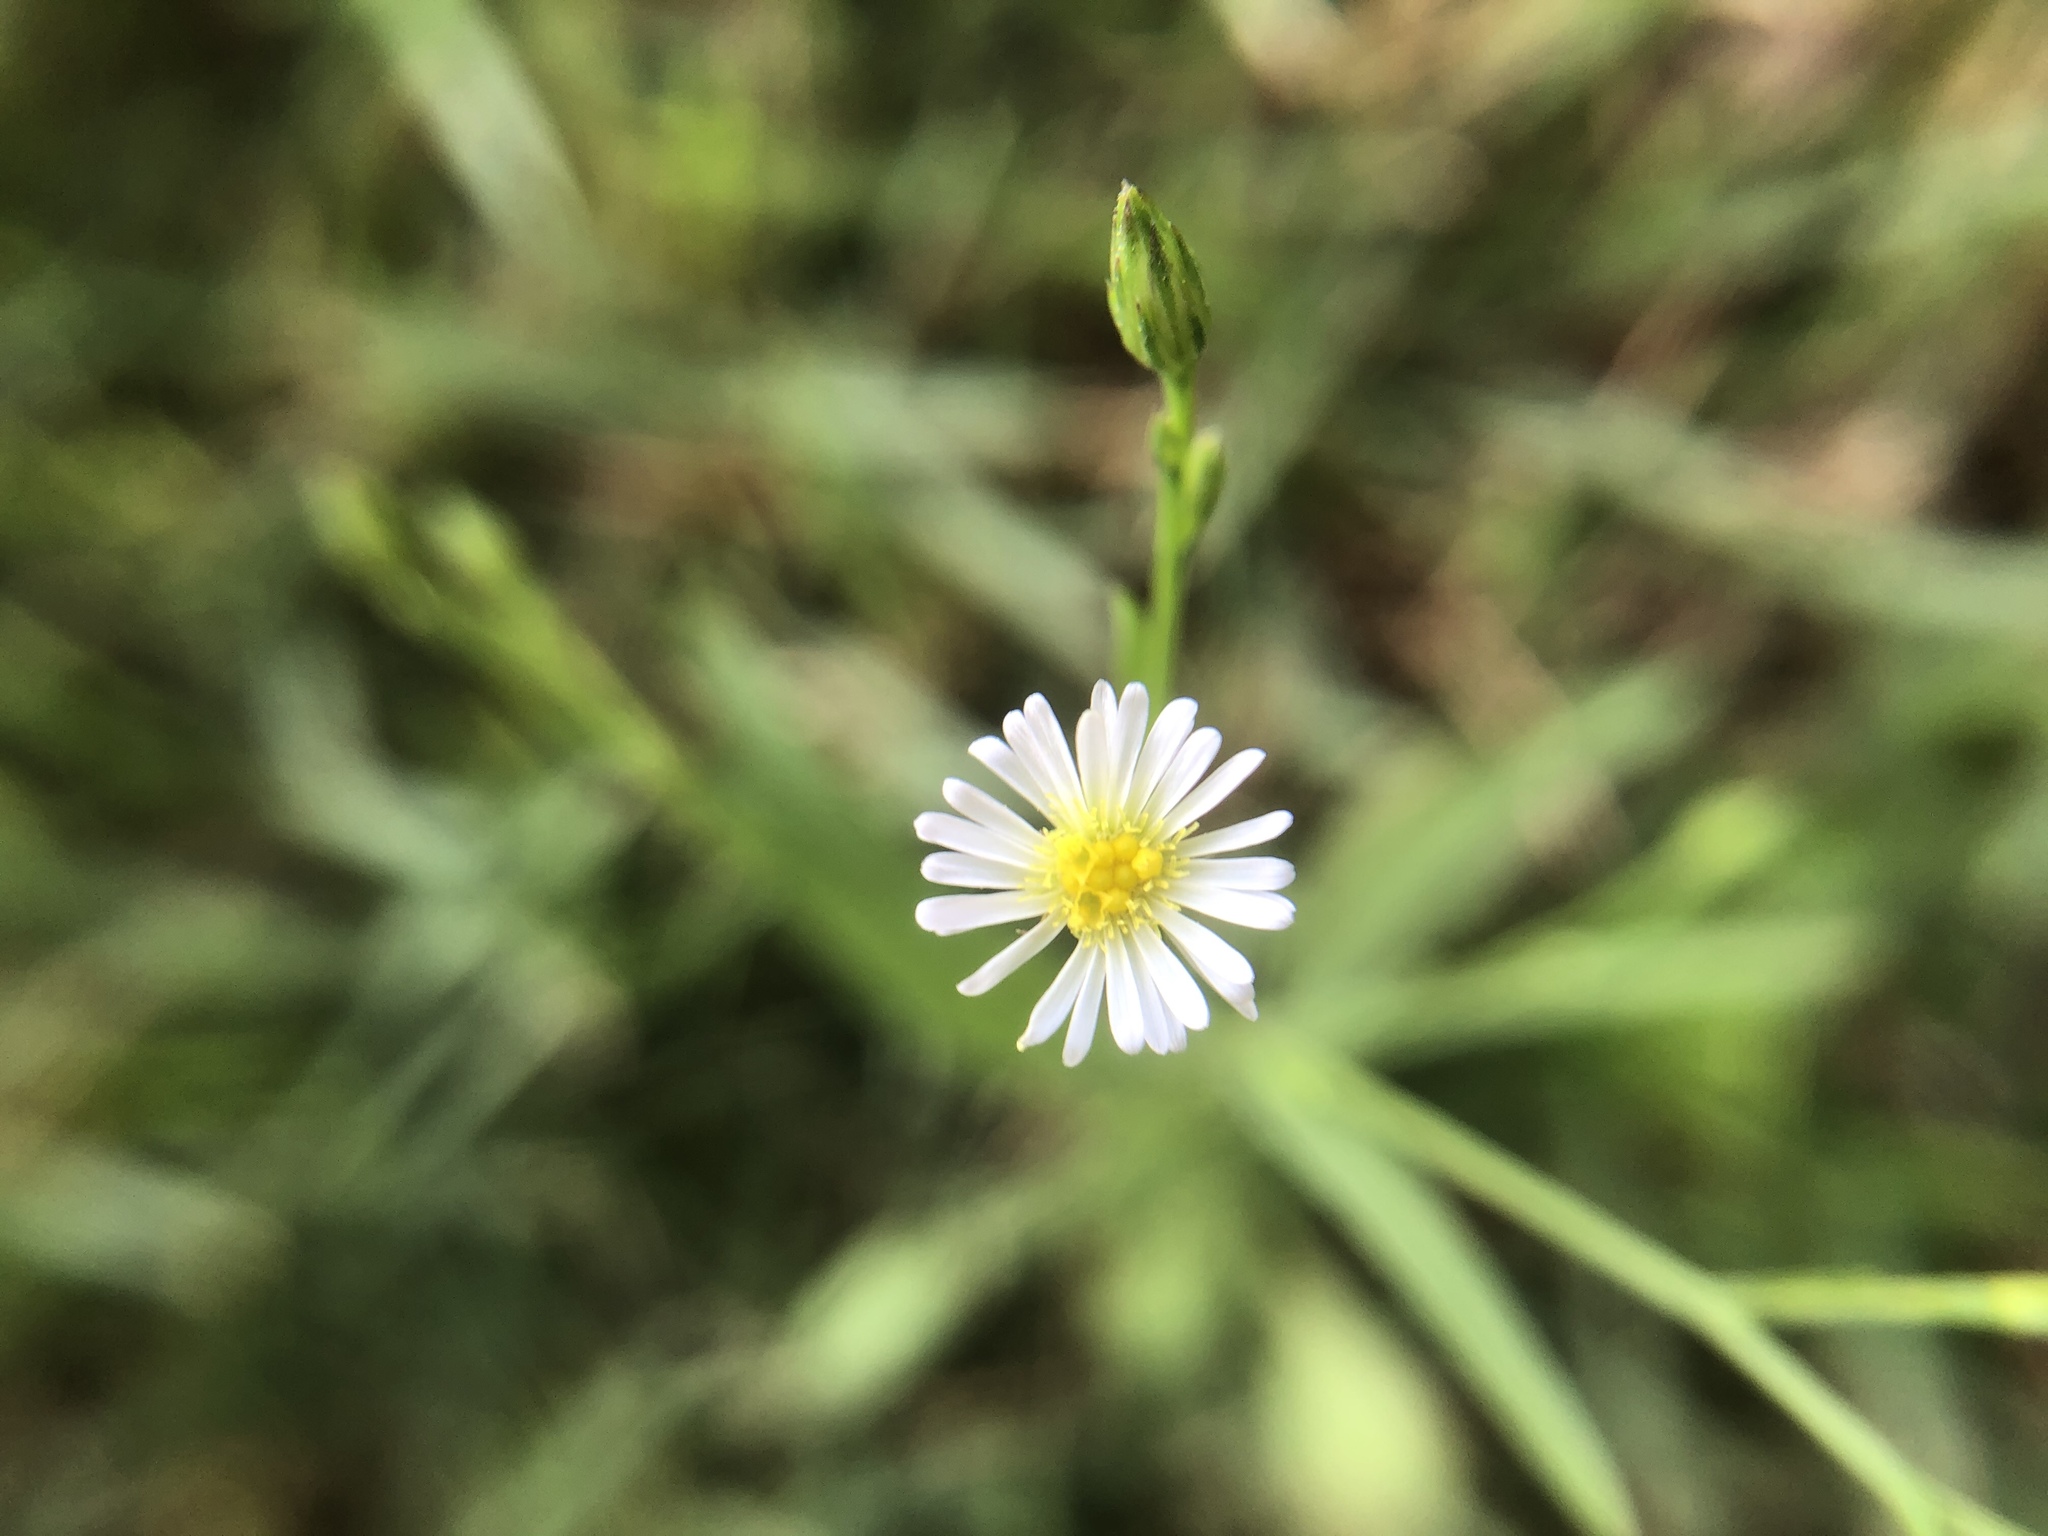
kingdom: Plantae
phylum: Tracheophyta
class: Magnoliopsida
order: Asterales
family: Asteraceae
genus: Symphyotrichum
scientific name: Symphyotrichum subulatum
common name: Annual saltmarsh aster
